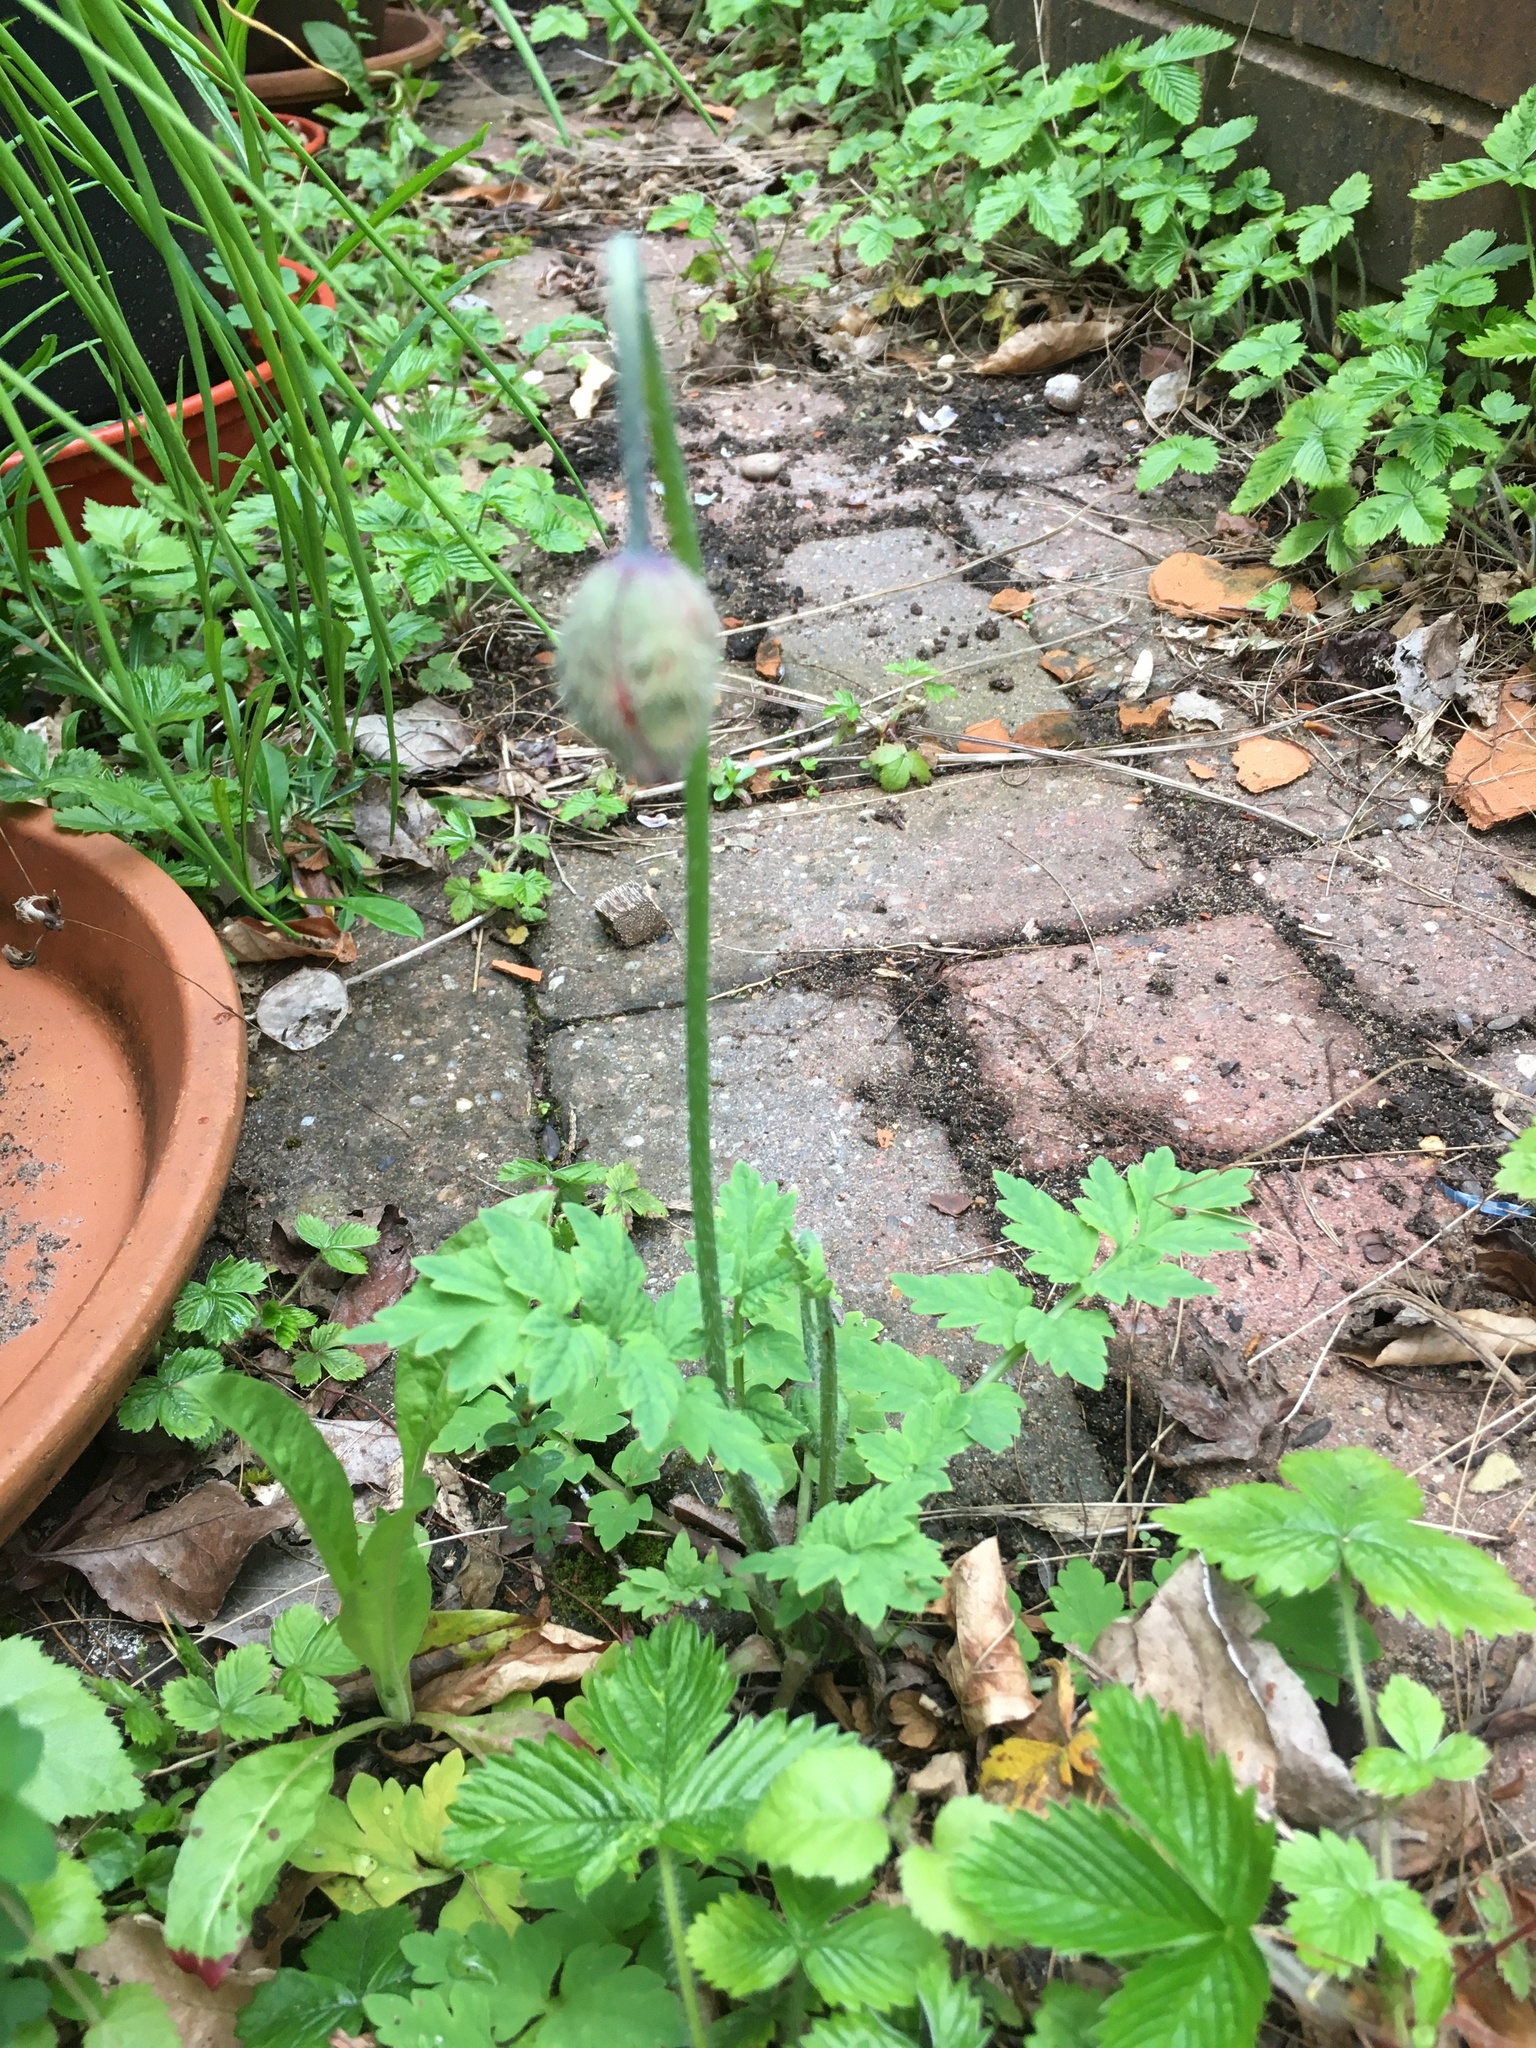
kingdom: Plantae
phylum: Tracheophyta
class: Magnoliopsida
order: Ranunculales
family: Papaveraceae
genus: Papaver
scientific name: Papaver cambricum
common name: Poppy
